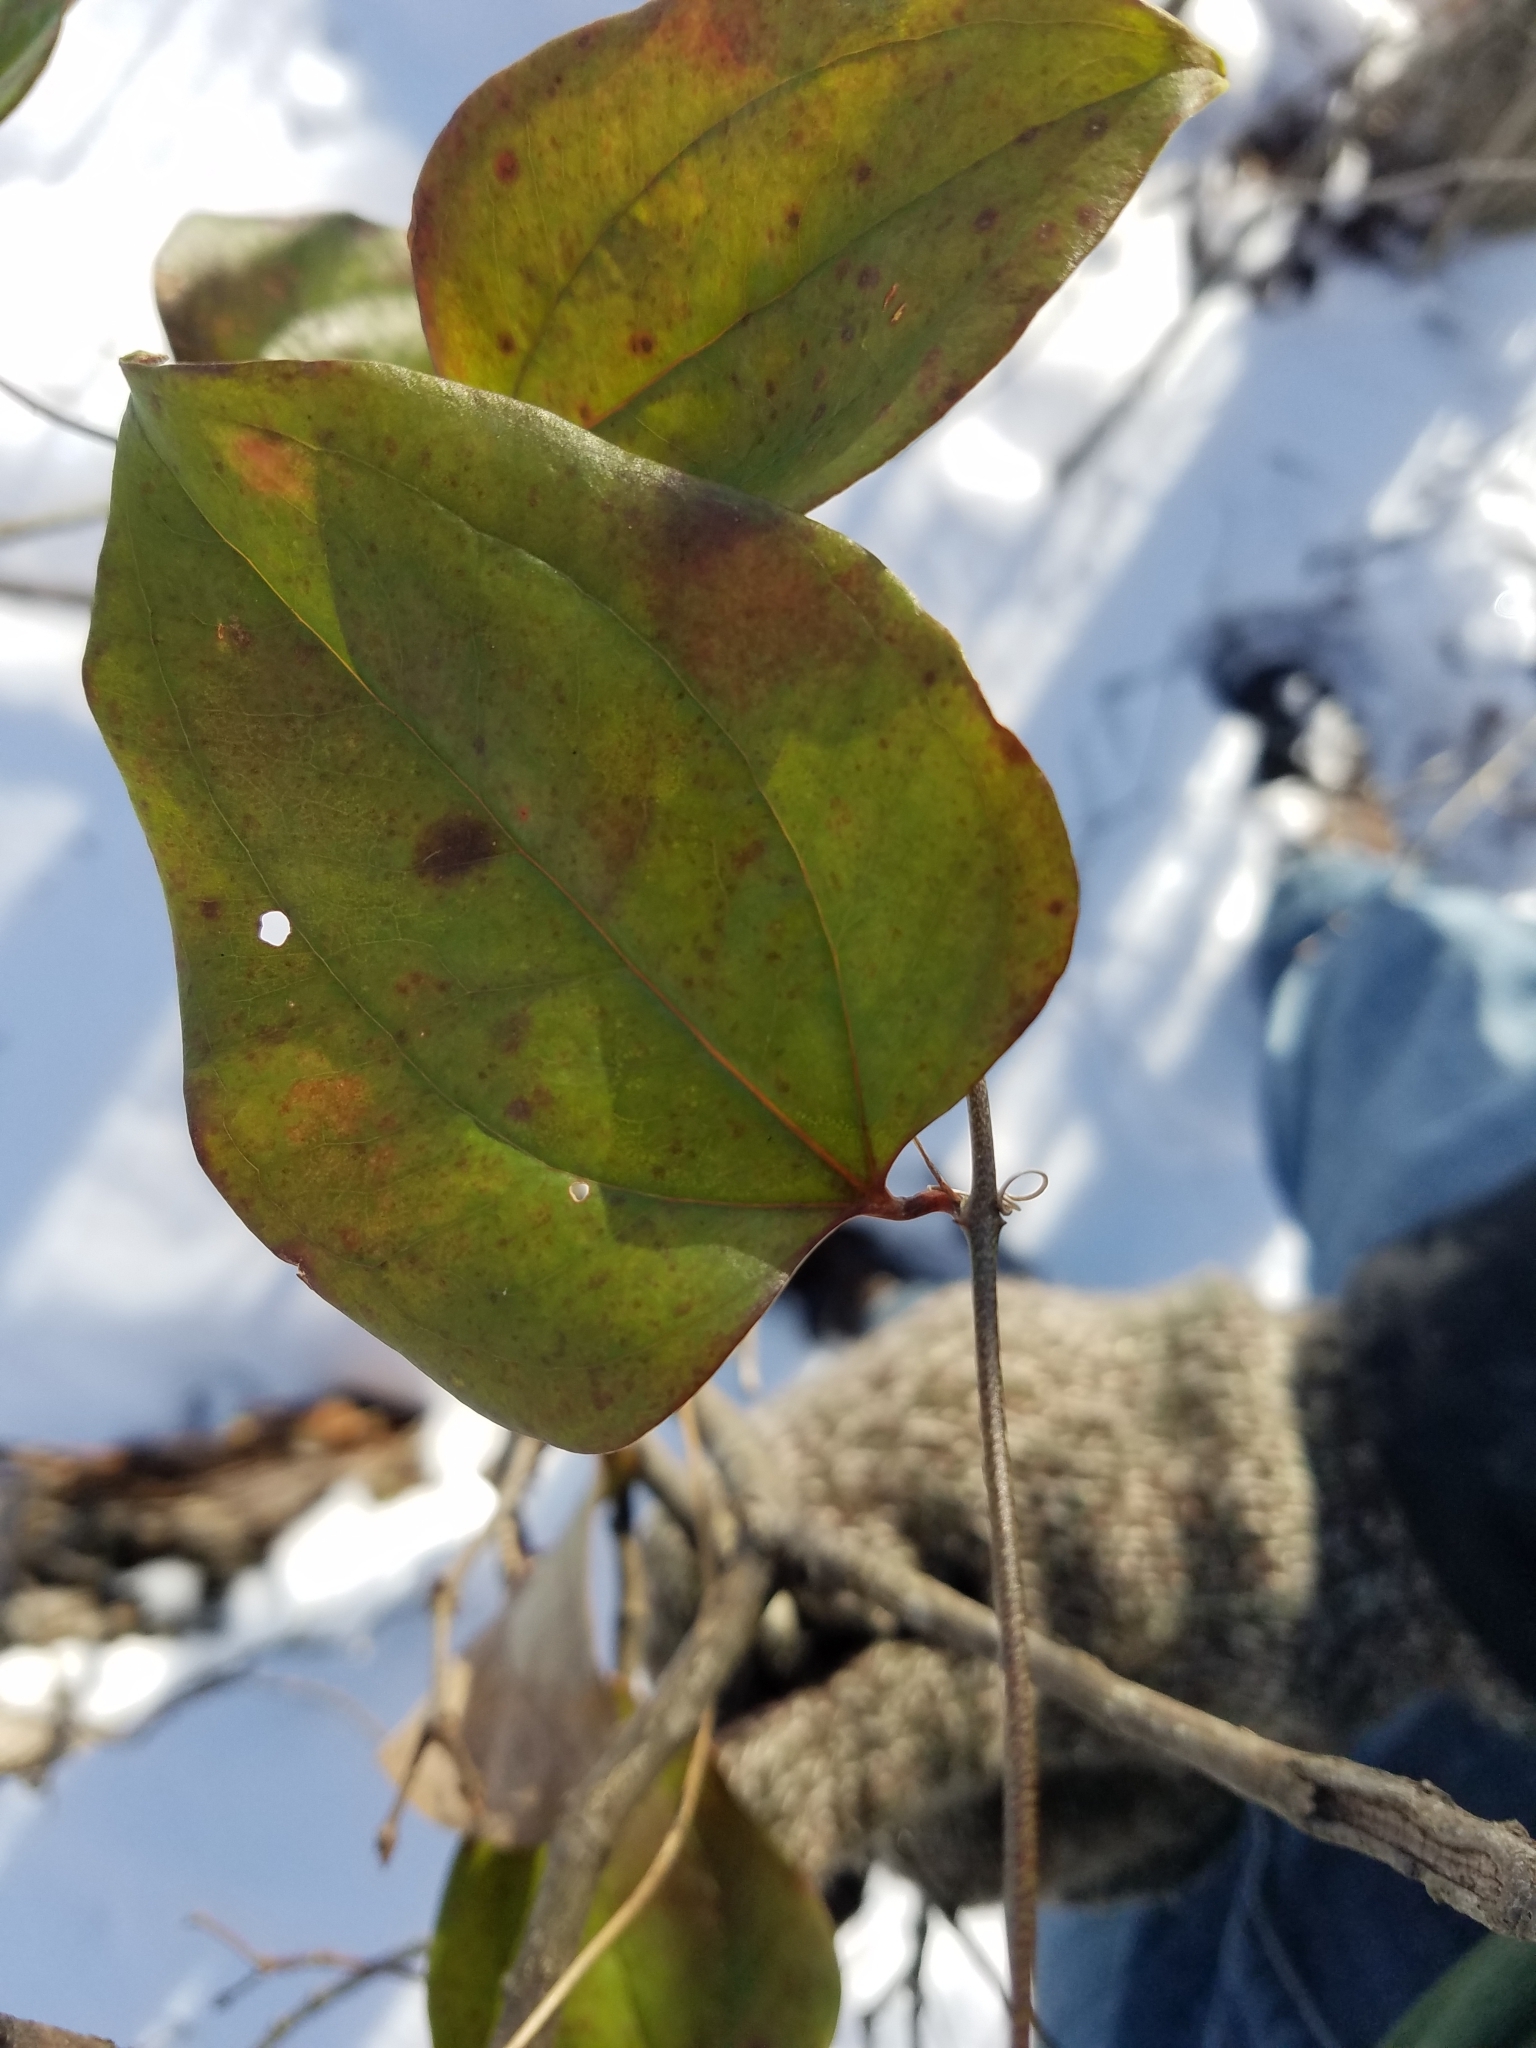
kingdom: Plantae
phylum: Tracheophyta
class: Liliopsida
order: Liliales
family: Smilacaceae
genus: Smilax
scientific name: Smilax glauca
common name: Cat greenbrier
